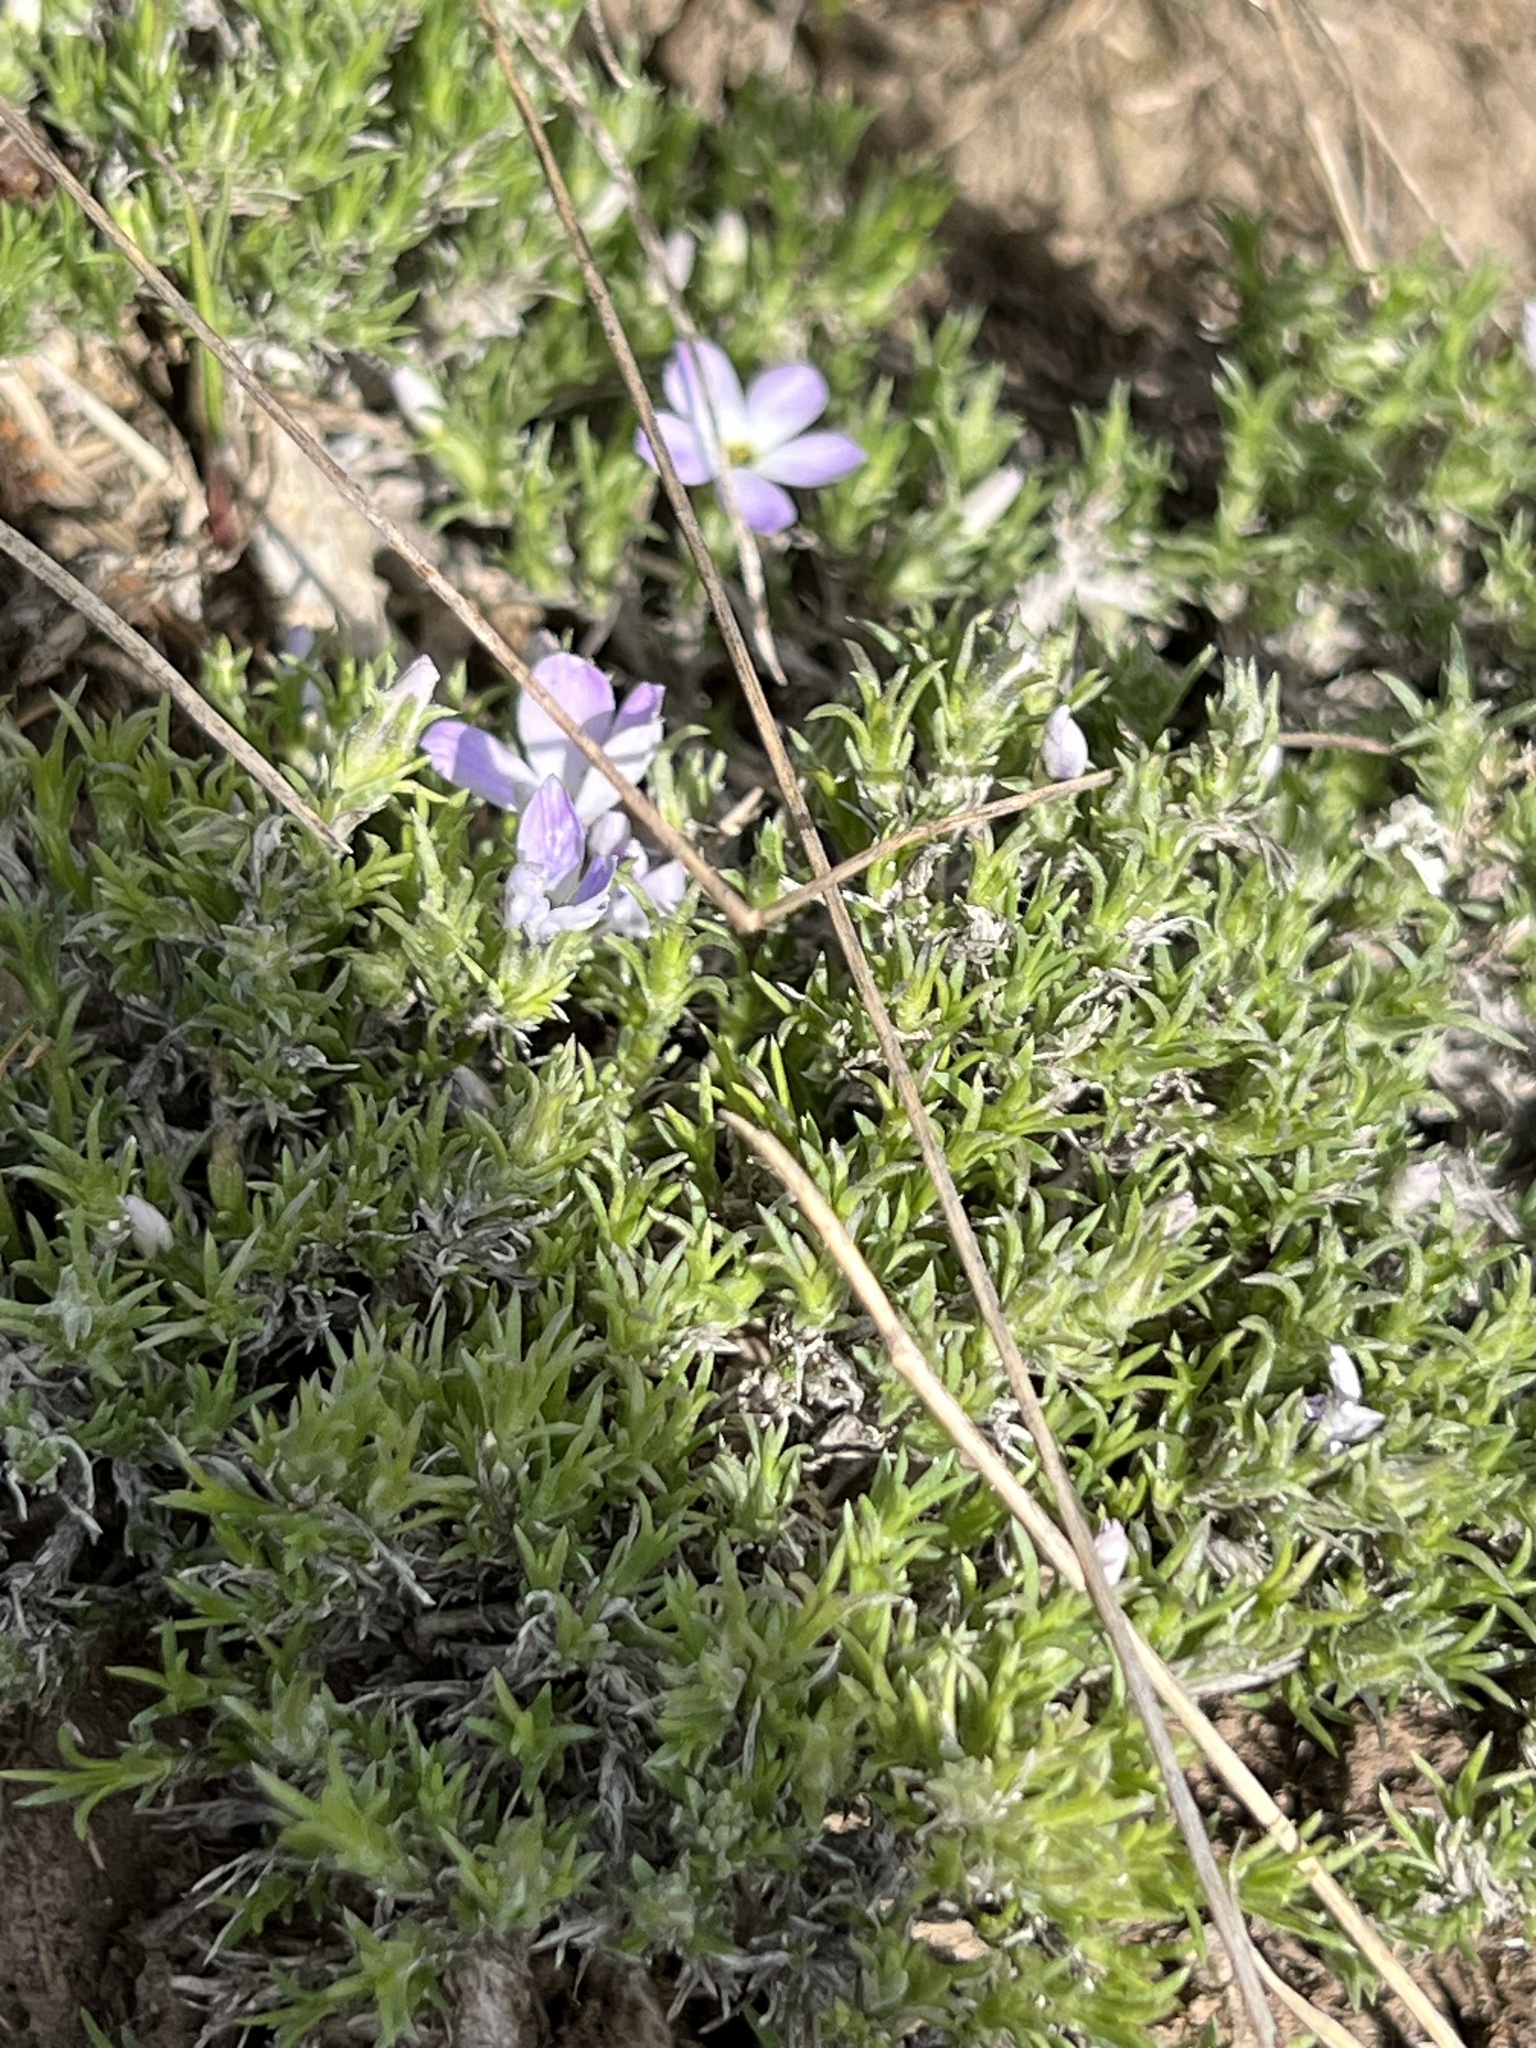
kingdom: Plantae
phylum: Tracheophyta
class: Magnoliopsida
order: Ericales
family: Polemoniaceae
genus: Phlox
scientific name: Phlox hoodii
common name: Moss phlox
